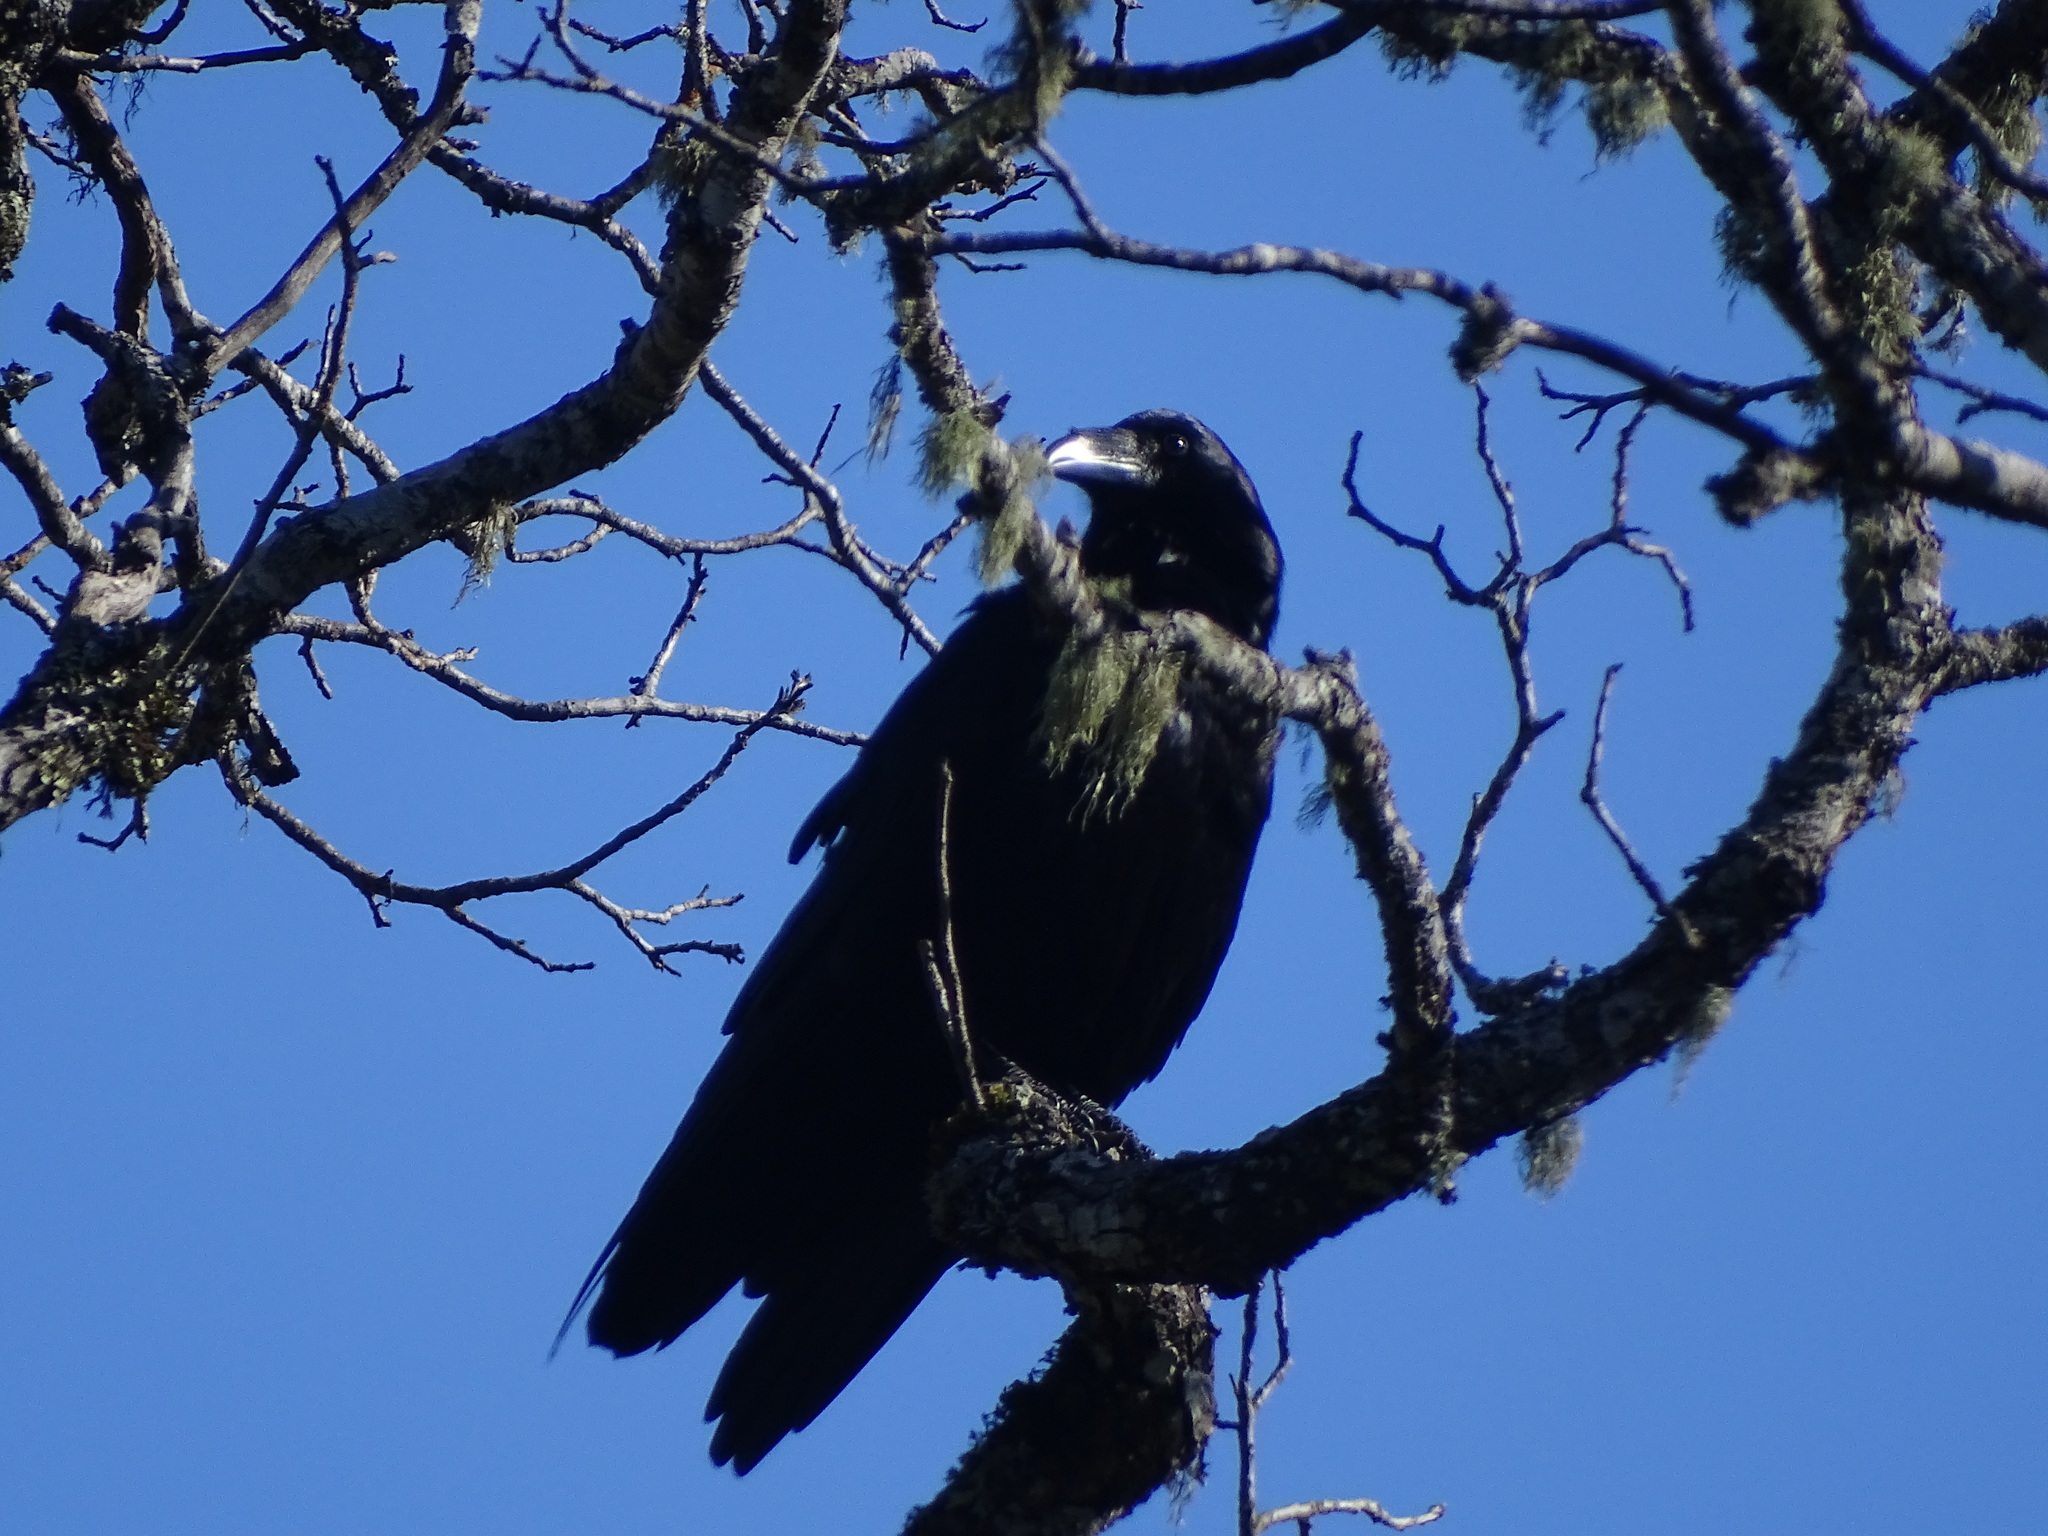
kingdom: Animalia
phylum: Chordata
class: Aves
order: Passeriformes
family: Corvidae
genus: Corvus
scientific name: Corvus corax
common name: Common raven
